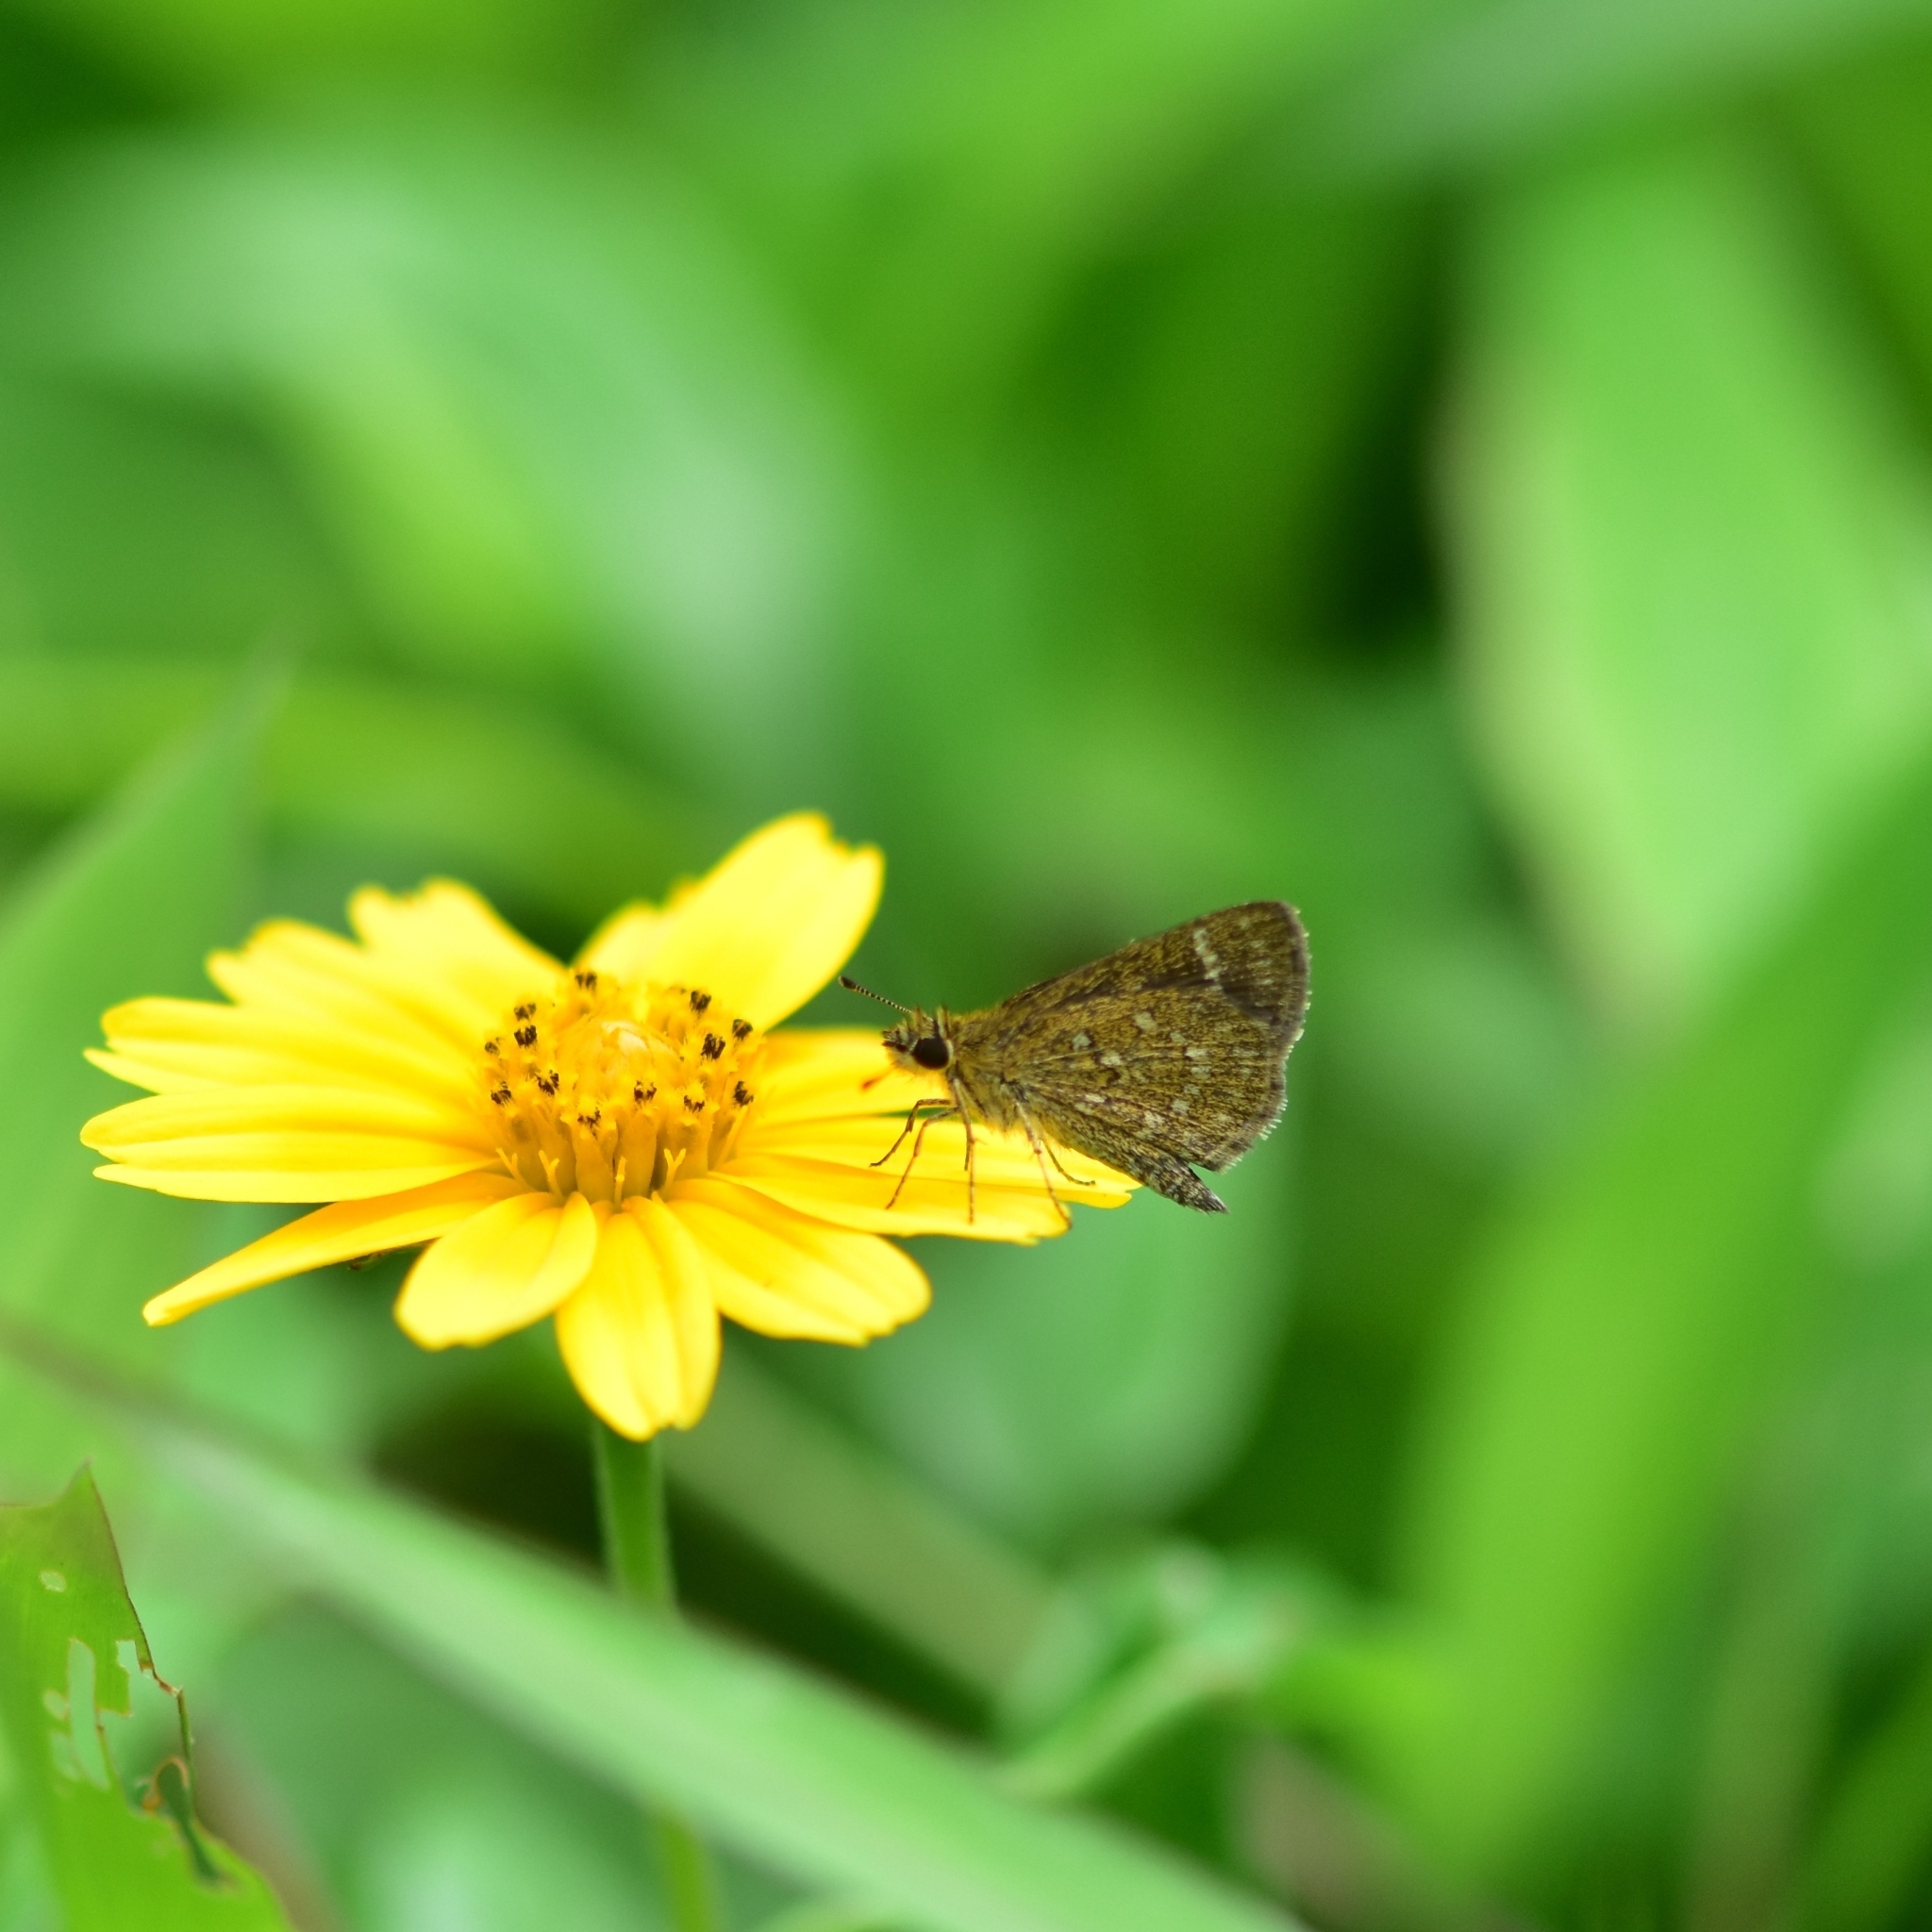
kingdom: Animalia
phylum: Arthropoda
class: Insecta
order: Lepidoptera
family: Hesperiidae
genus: Aeromachus
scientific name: Aeromachus pygmaeus
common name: Pygmy scrub hopper
